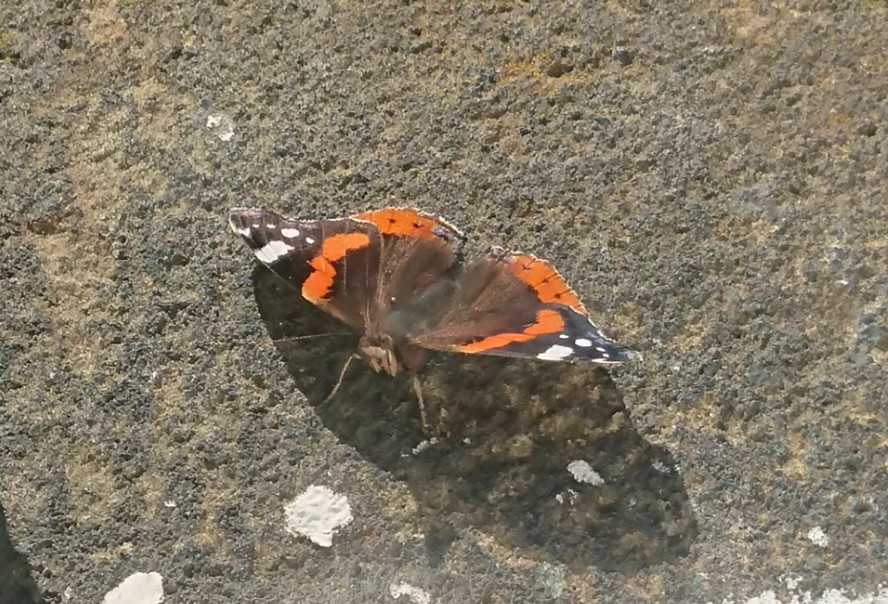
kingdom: Animalia
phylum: Arthropoda
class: Insecta
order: Lepidoptera
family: Nymphalidae
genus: Vanessa
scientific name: Vanessa atalanta
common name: Red admiral
